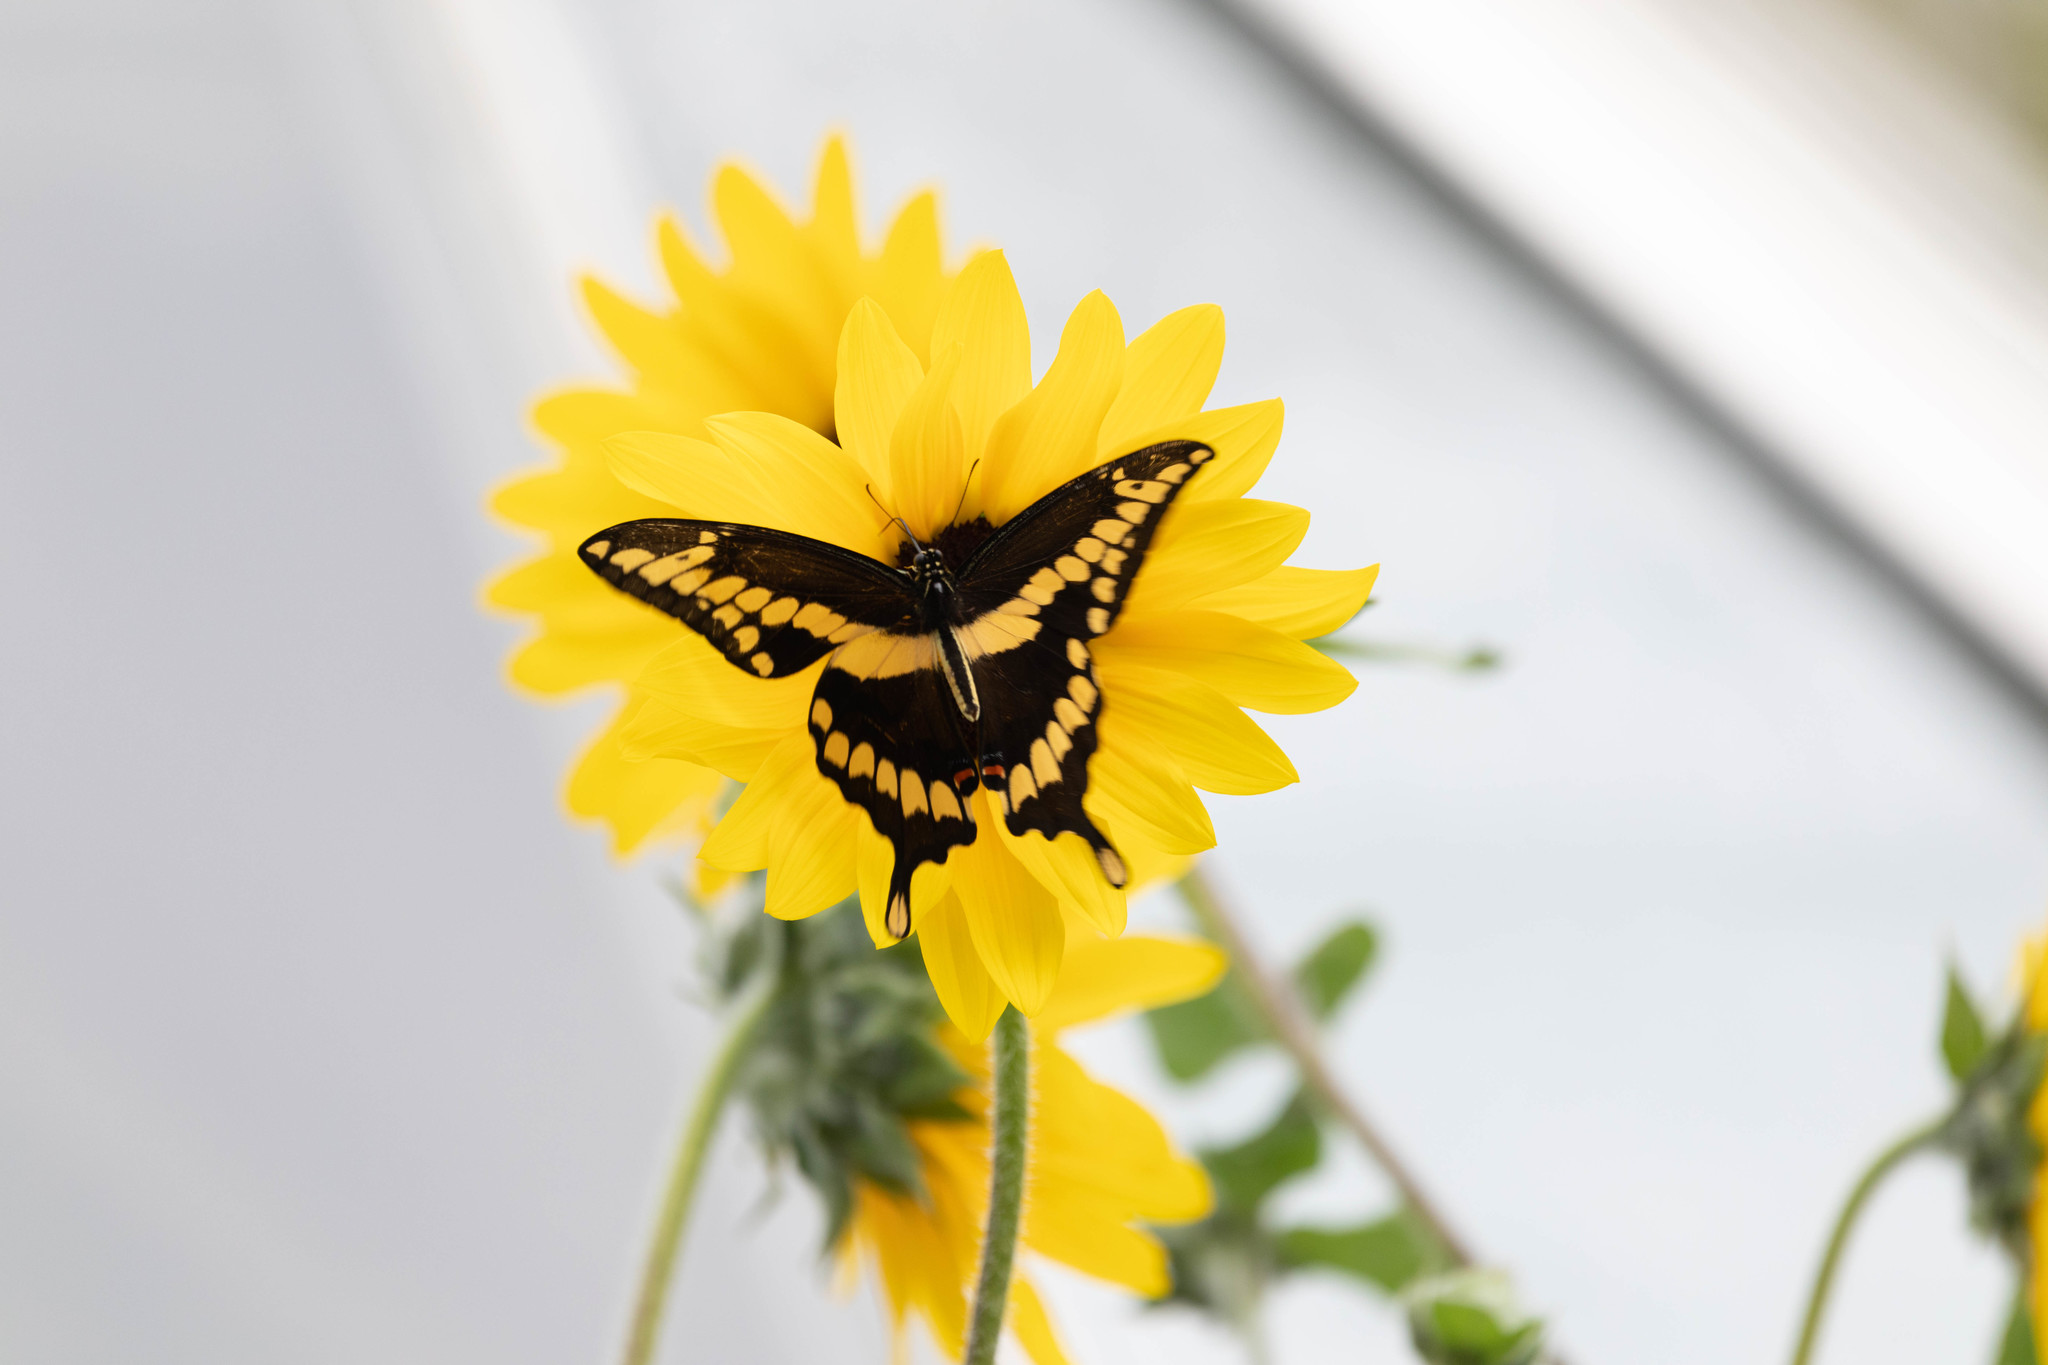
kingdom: Animalia
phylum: Arthropoda
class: Insecta
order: Lepidoptera
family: Papilionidae
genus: Papilio
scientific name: Papilio cresphontes
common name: Giant swallowtail
